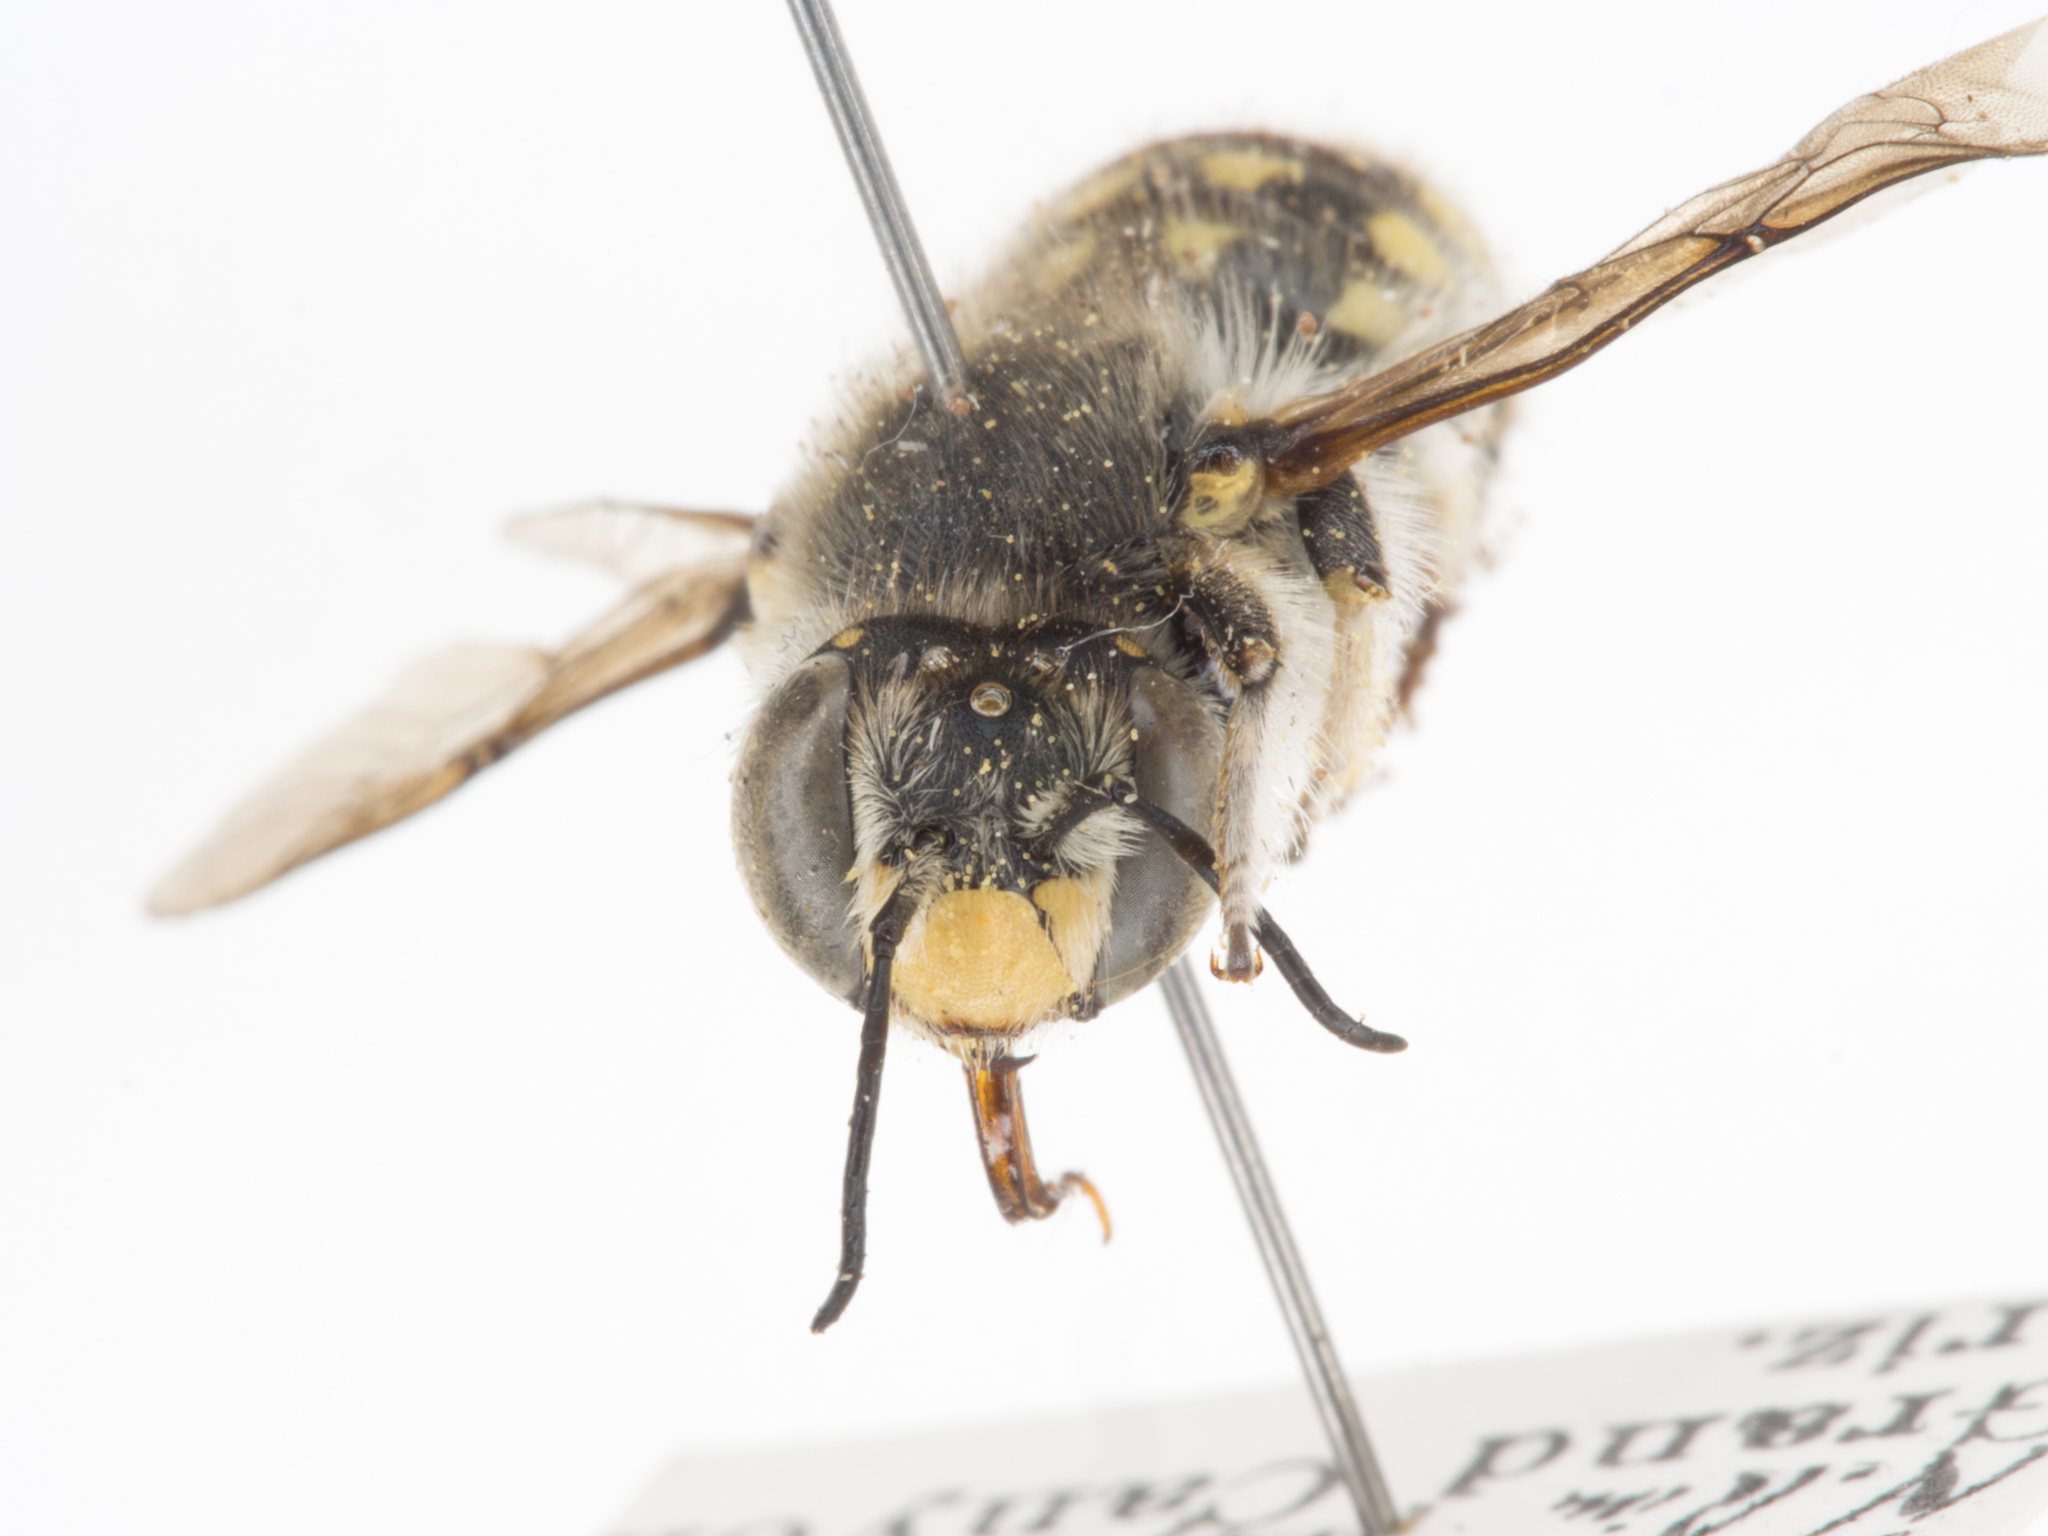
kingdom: Animalia
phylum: Arthropoda
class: Insecta
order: Hymenoptera
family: Megachilidae
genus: Anthidium
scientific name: Anthidium maculosum
